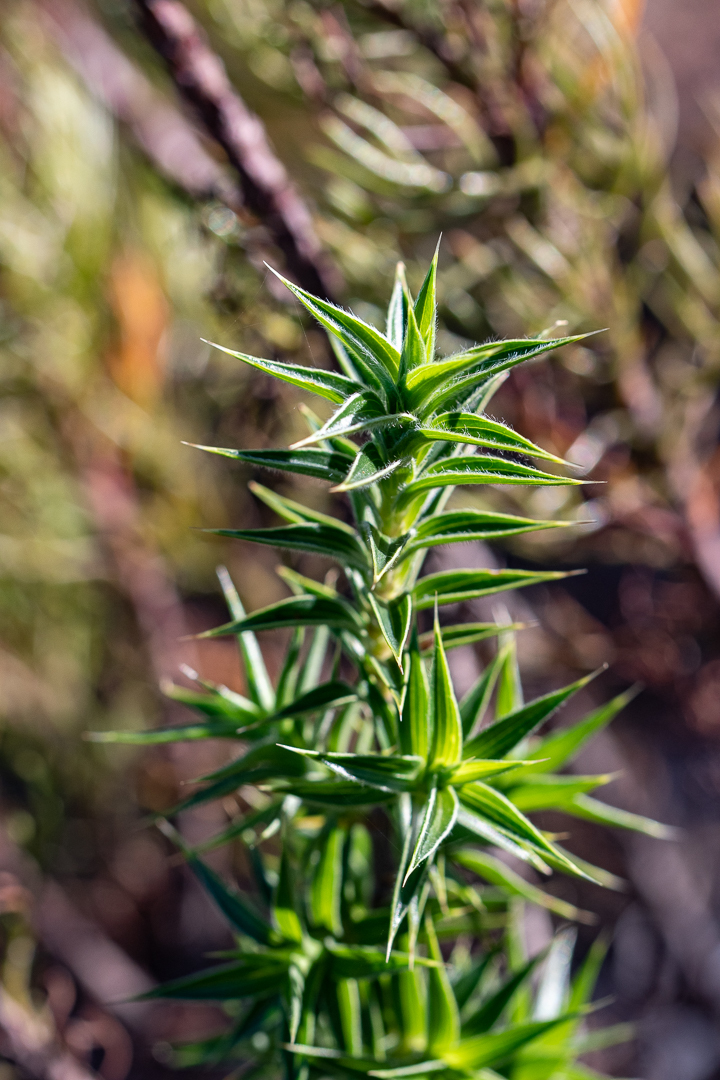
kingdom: Plantae
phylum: Tracheophyta
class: Magnoliopsida
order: Rosales
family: Rosaceae
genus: Cliffortia
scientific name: Cliffortia ruscifolia
